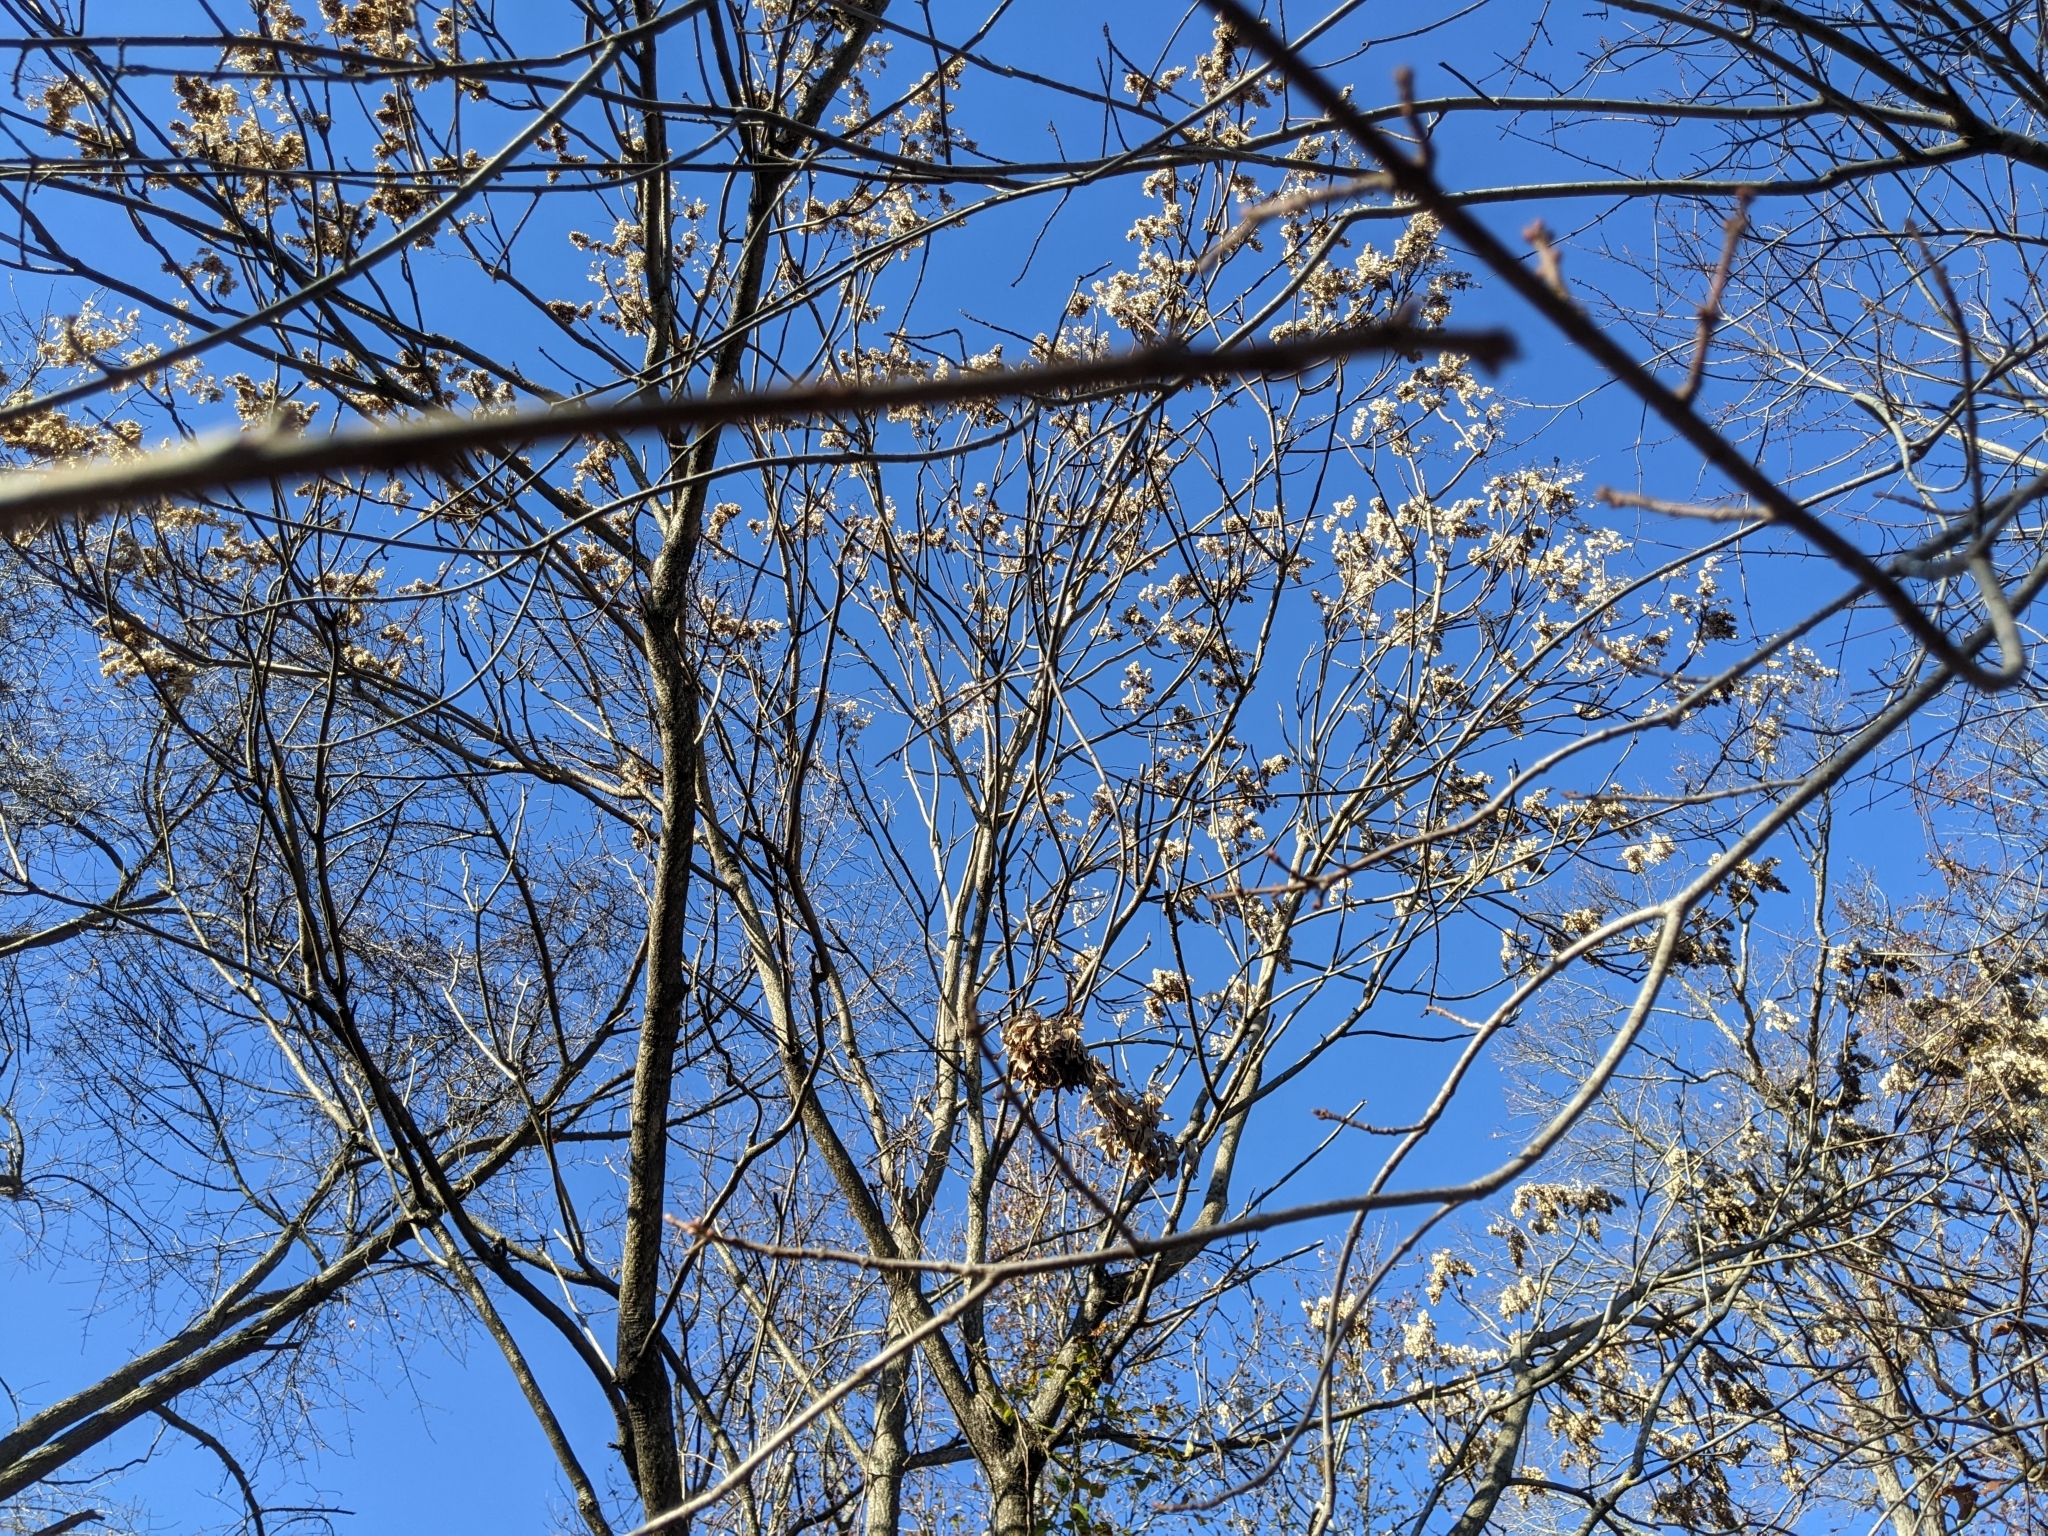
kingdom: Plantae
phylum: Tracheophyta
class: Magnoliopsida
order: Sapindales
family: Simaroubaceae
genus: Ailanthus
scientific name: Ailanthus altissima
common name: Tree-of-heaven
